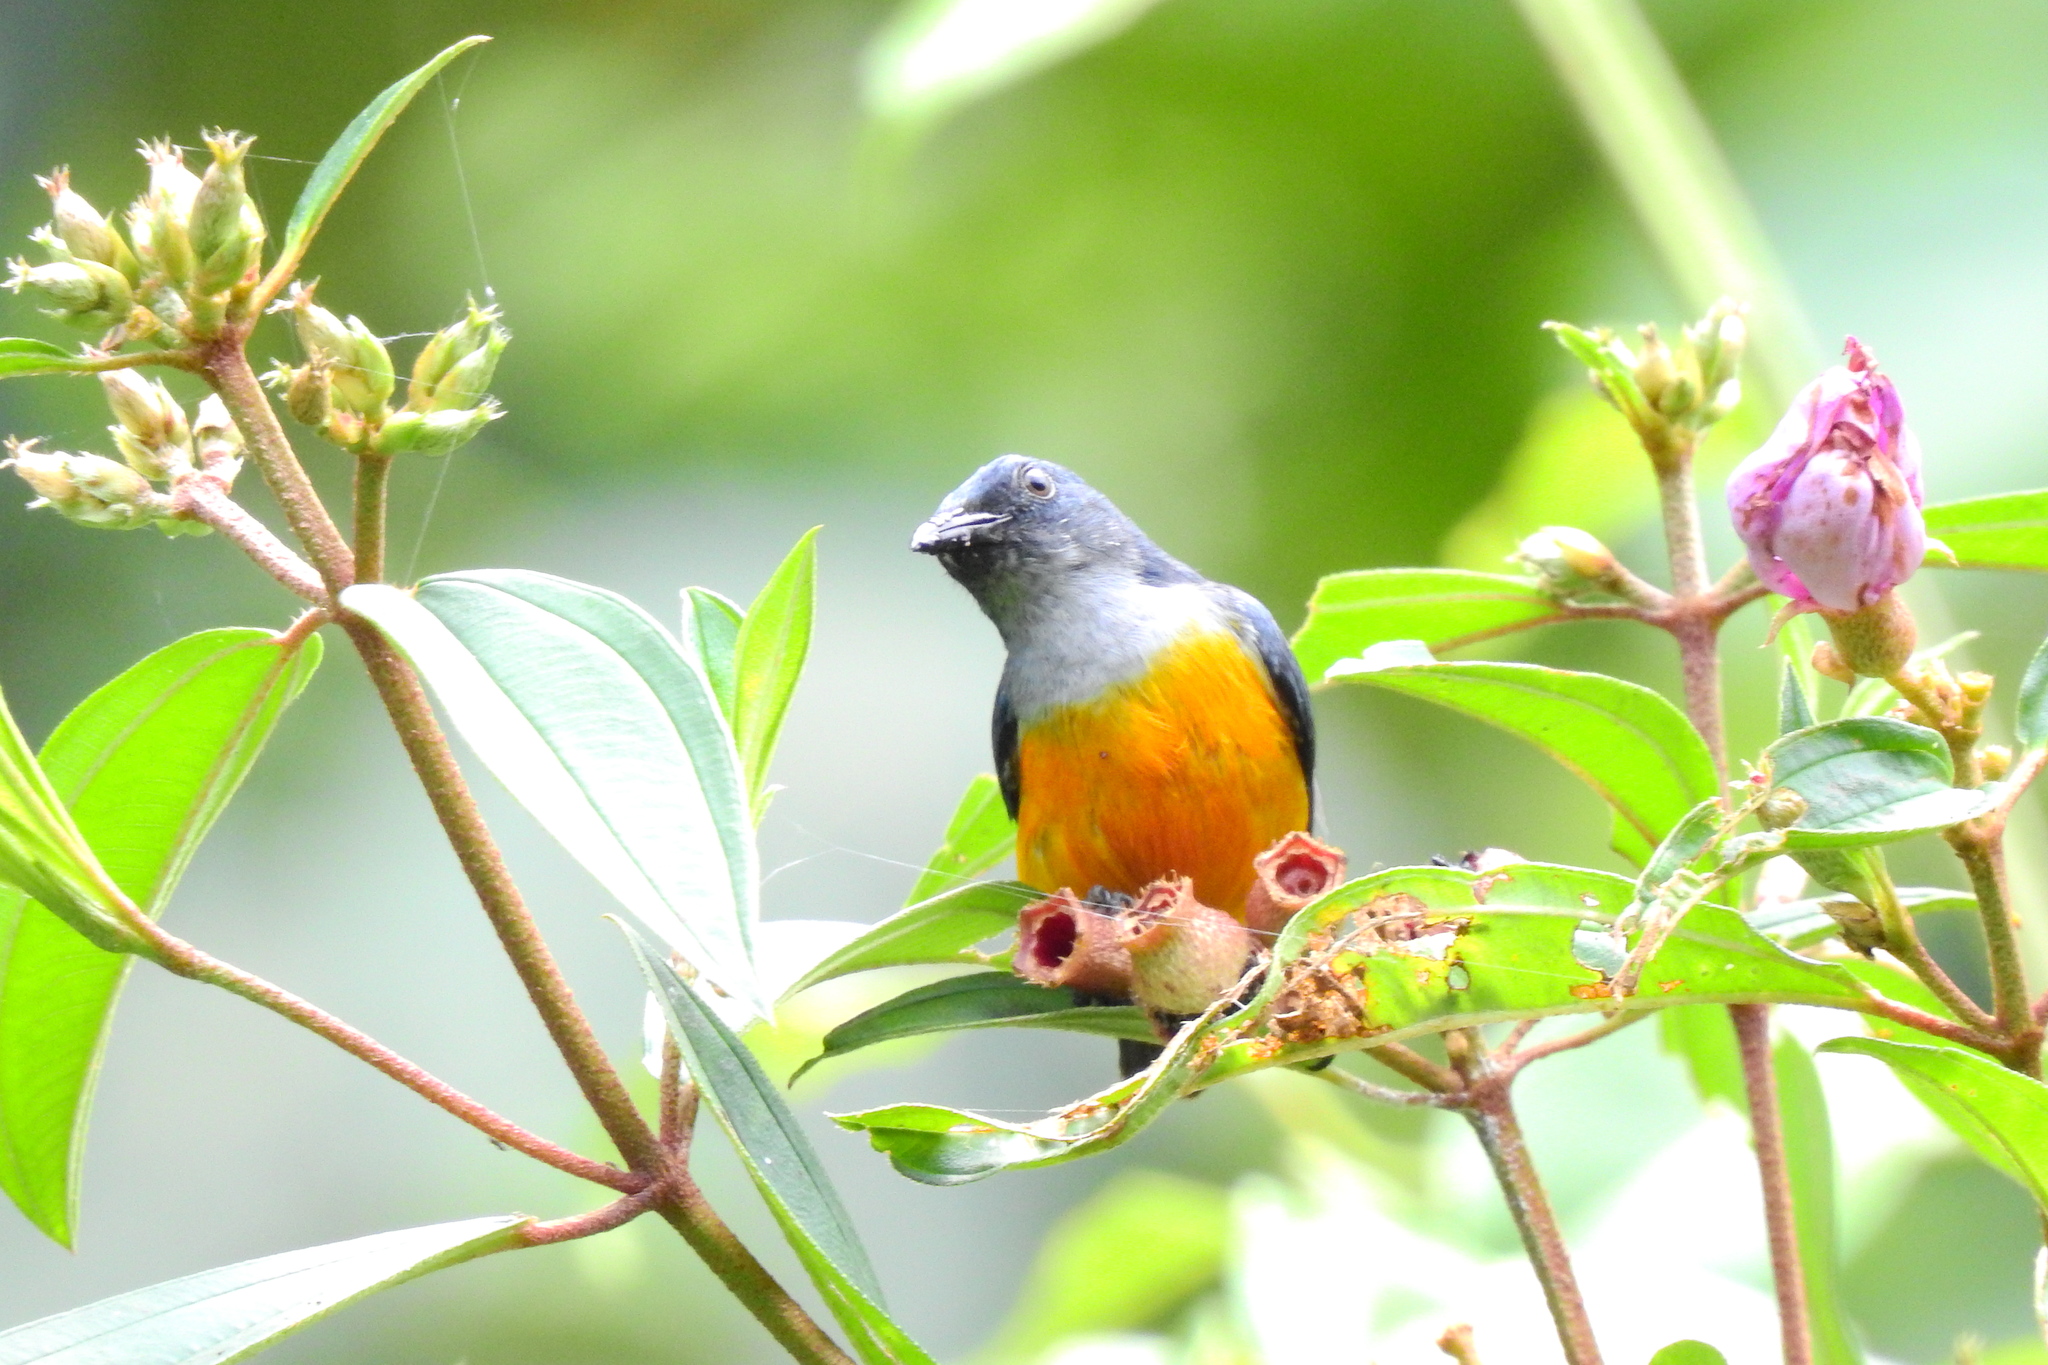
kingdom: Animalia
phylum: Chordata
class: Aves
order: Passeriformes
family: Dicaeidae
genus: Dicaeum
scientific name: Dicaeum trigonostigma
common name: Orange-bellied flowerpecker
